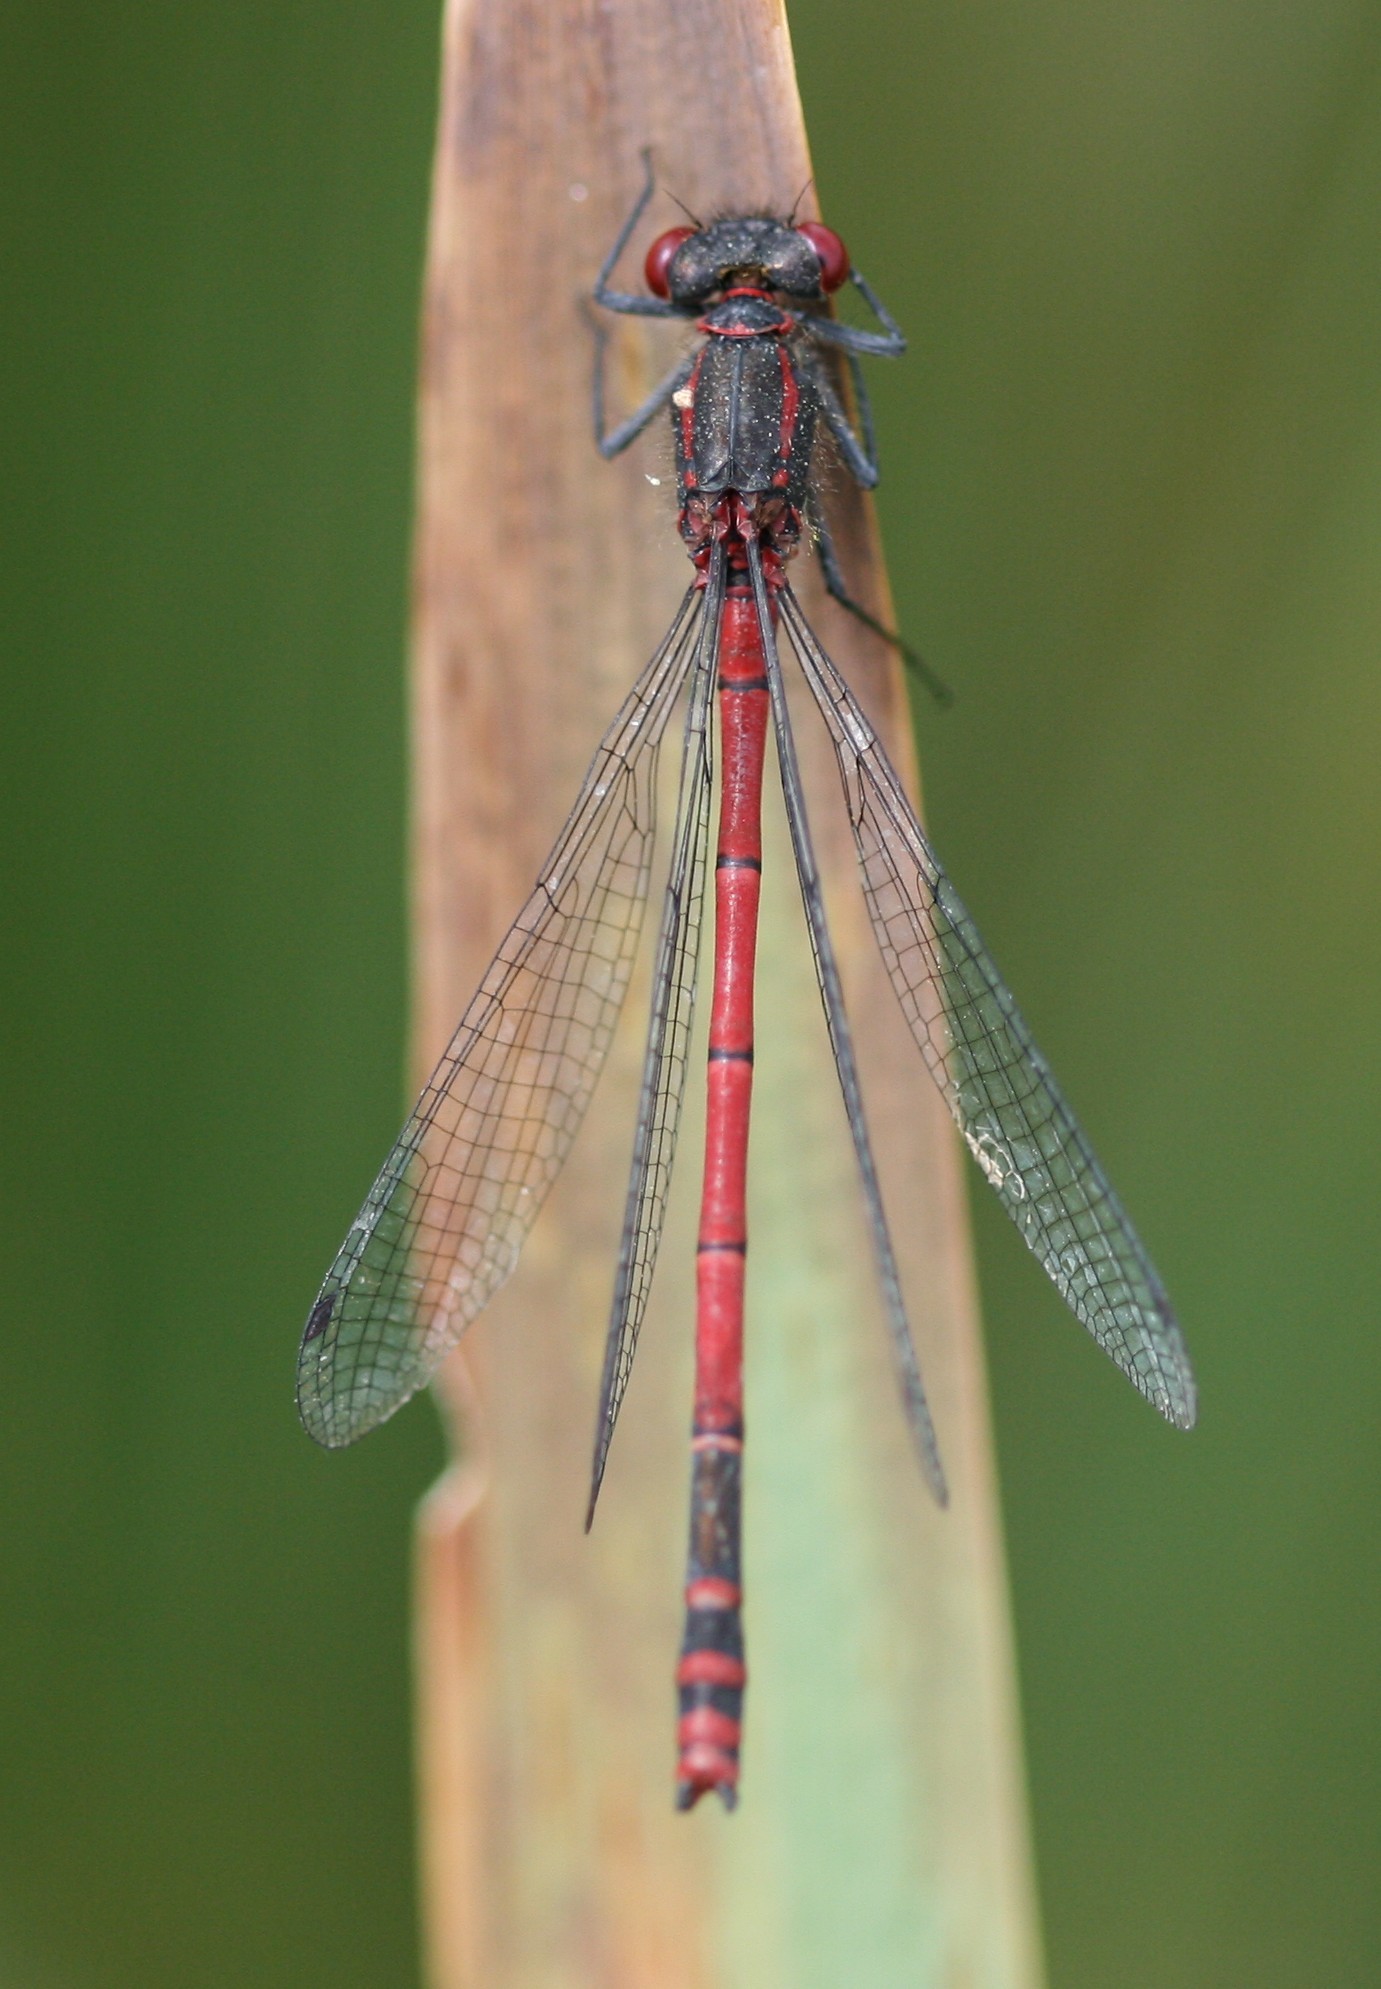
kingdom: Animalia
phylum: Arthropoda
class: Insecta
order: Odonata
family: Coenagrionidae
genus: Pyrrhosoma
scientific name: Pyrrhosoma nymphula
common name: Large red damsel
